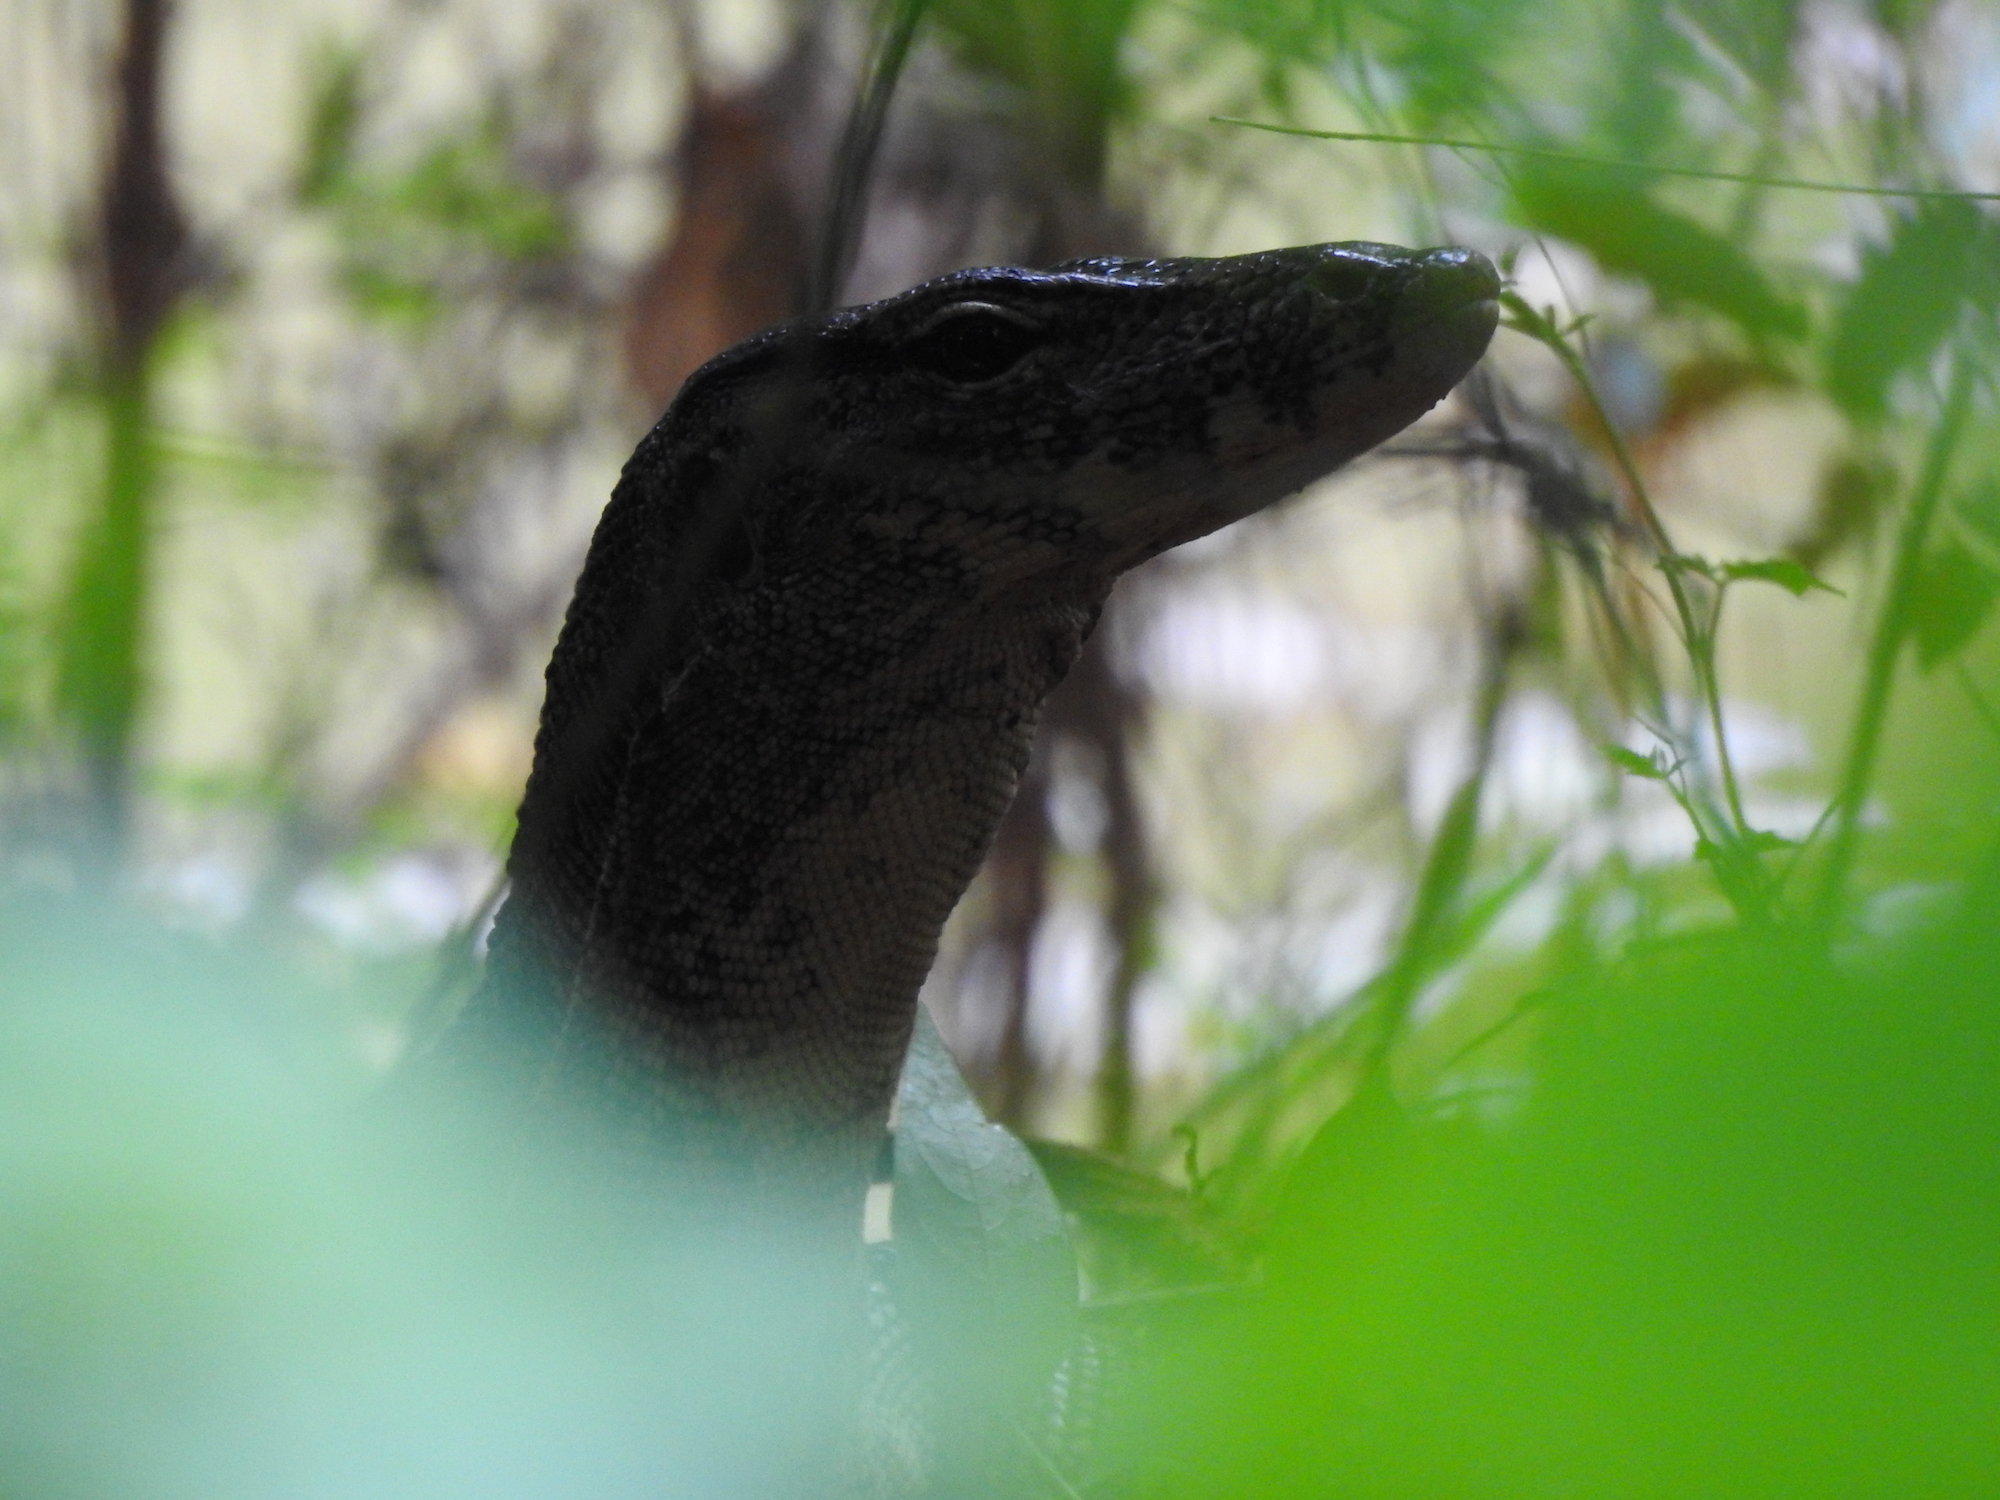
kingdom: Animalia
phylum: Chordata
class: Squamata
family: Varanidae
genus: Varanus
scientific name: Varanus salvator
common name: Common water monitor
